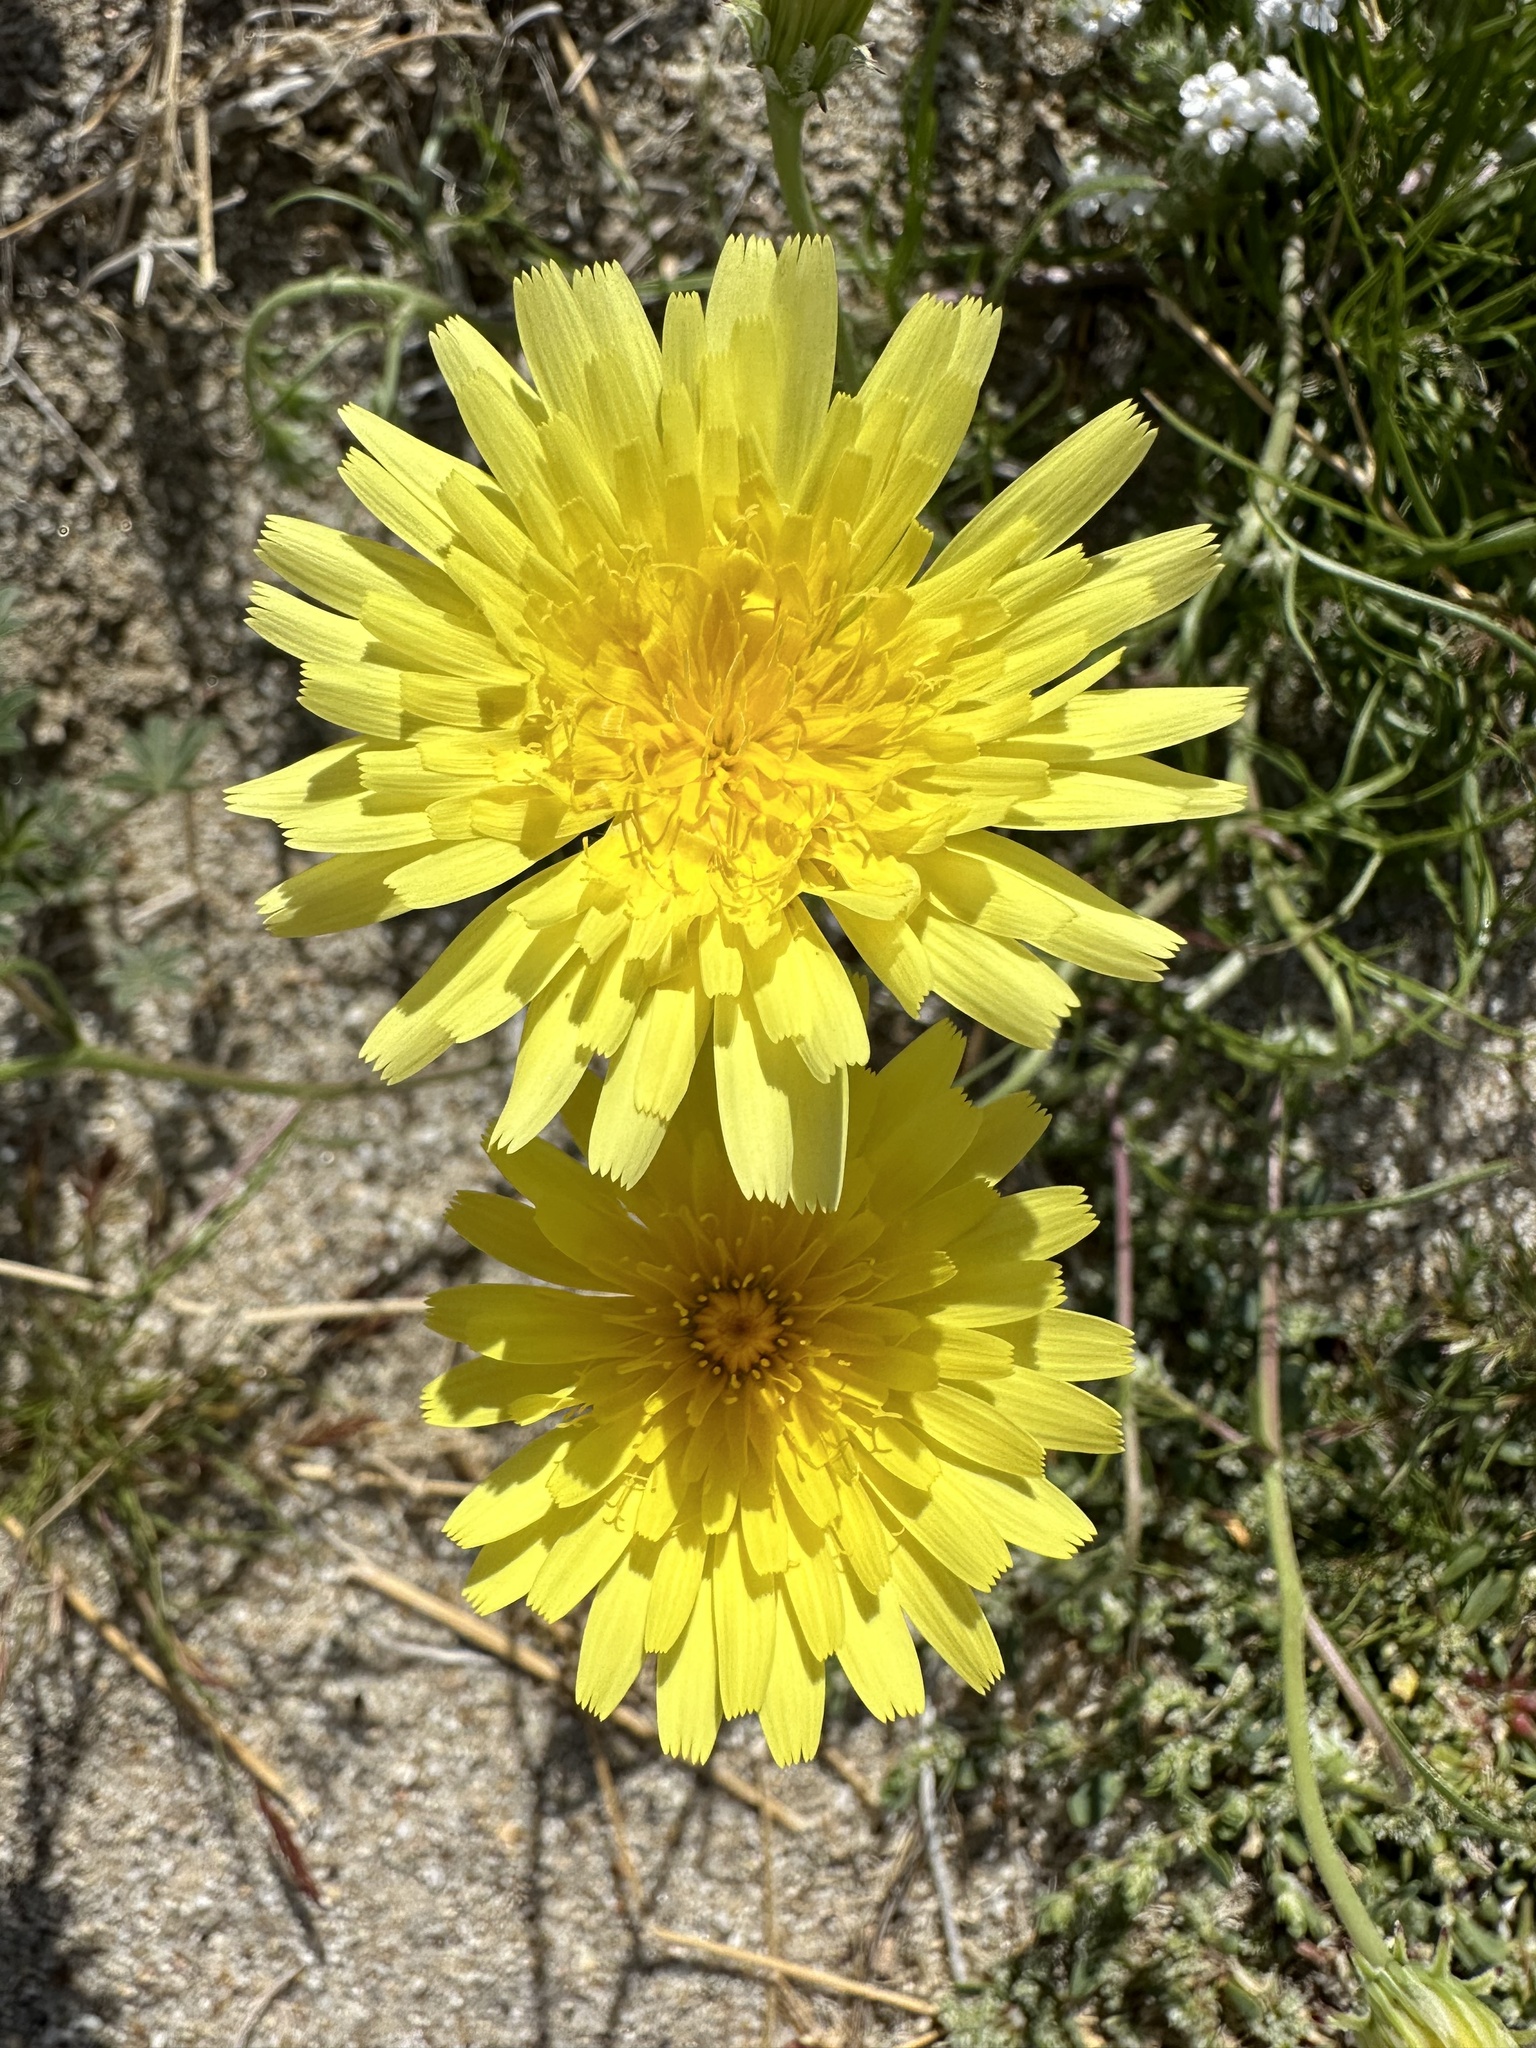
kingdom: Plantae
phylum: Tracheophyta
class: Magnoliopsida
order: Asterales
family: Asteraceae
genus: Malacothrix
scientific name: Malacothrix glabrata
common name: Smooth desert-dandelion
